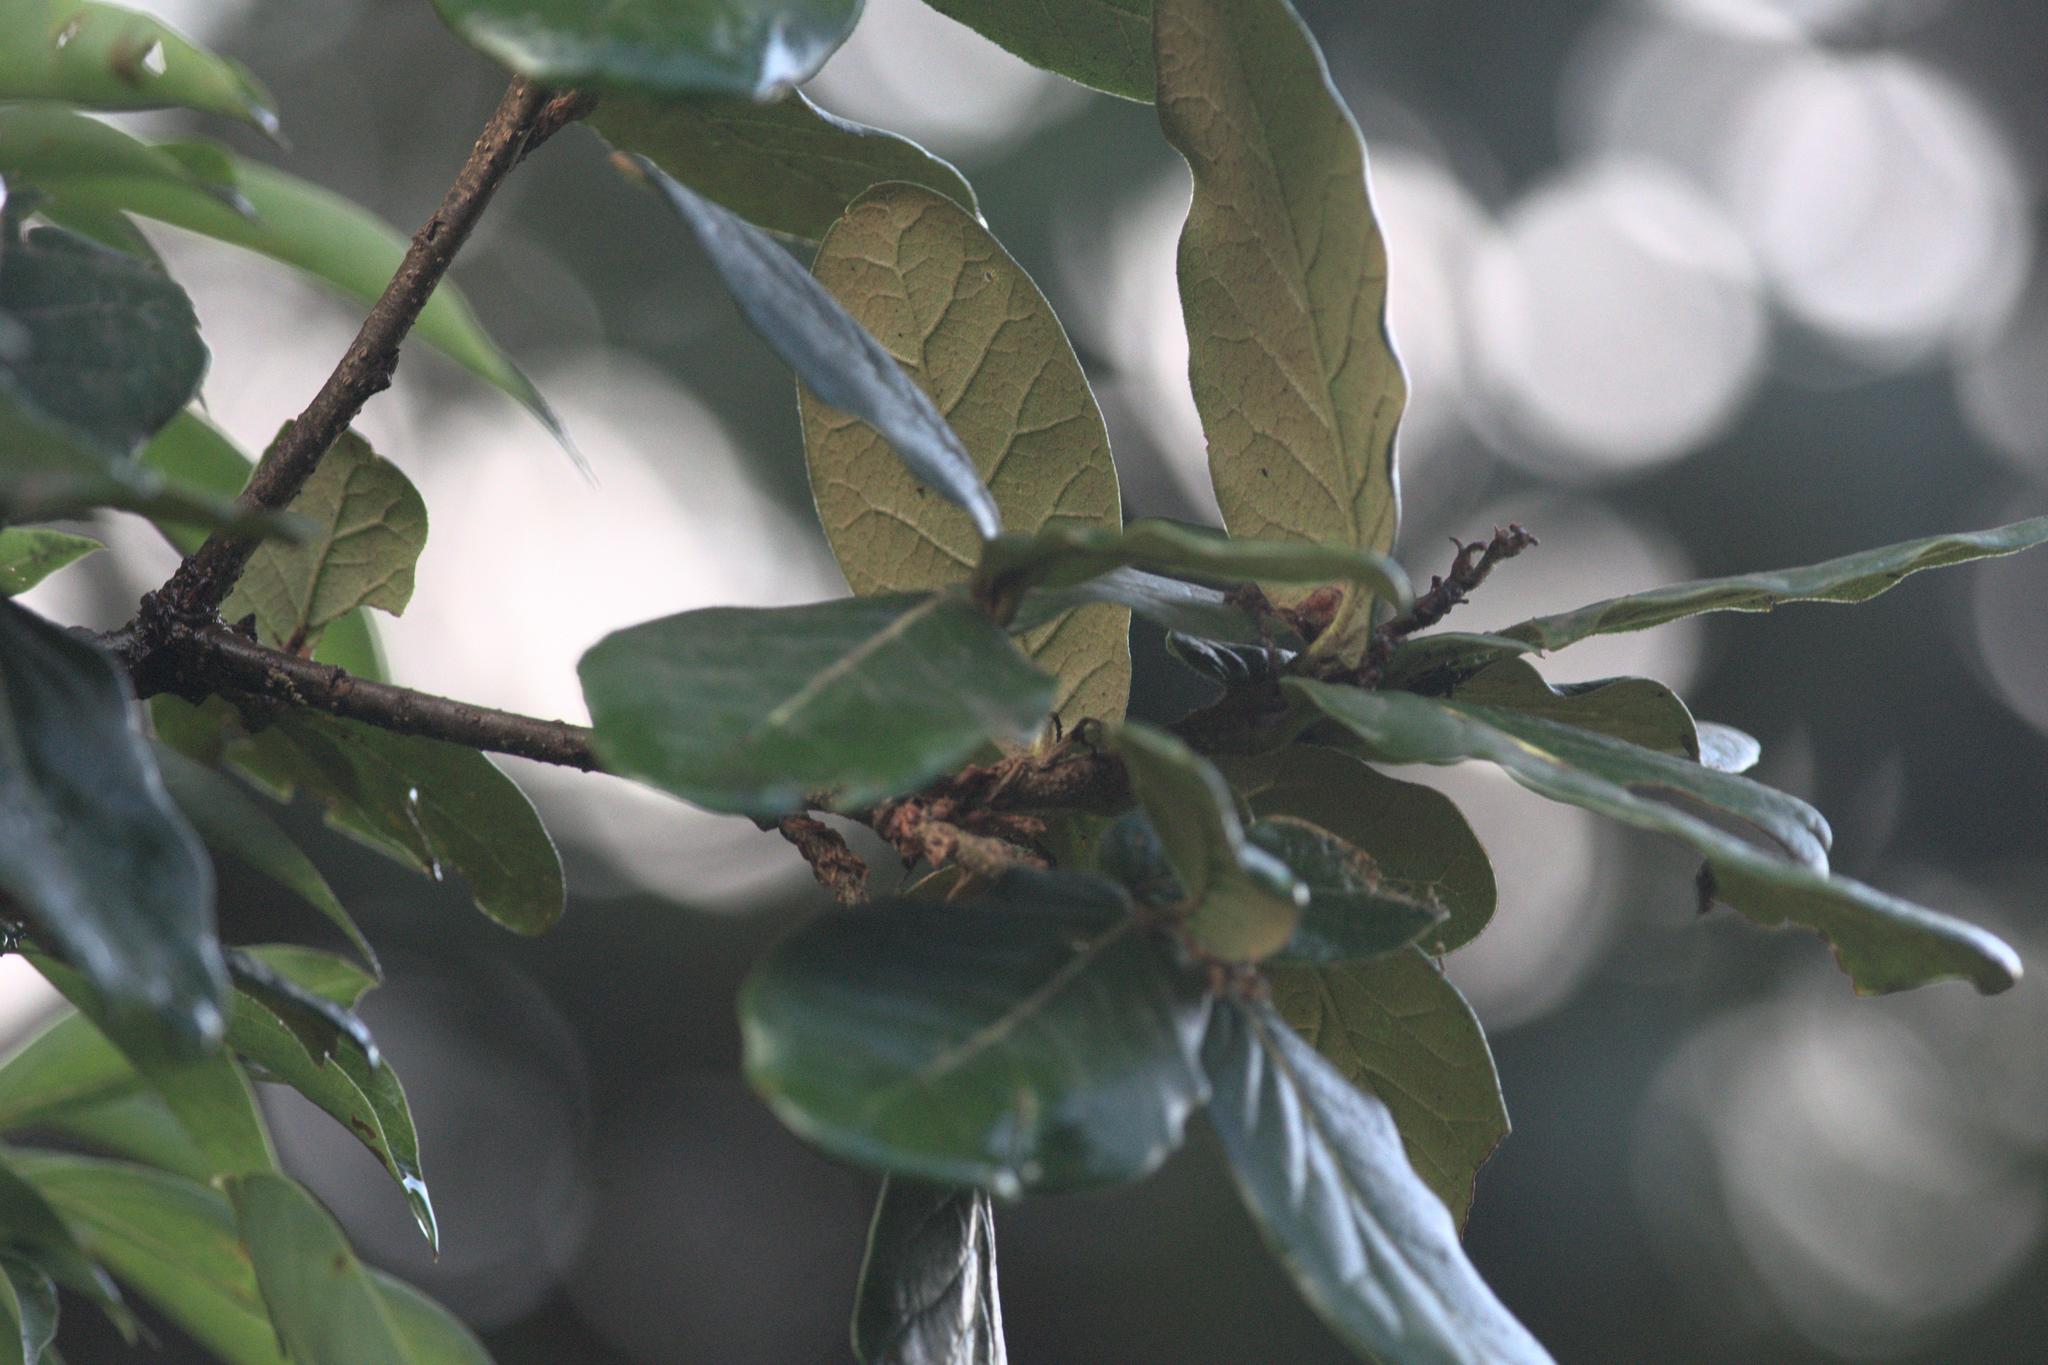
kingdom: Plantae
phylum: Tracheophyta
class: Magnoliopsida
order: Fagales
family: Fagaceae
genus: Quercus
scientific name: Quercus semecarpifolia
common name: Brown oak
